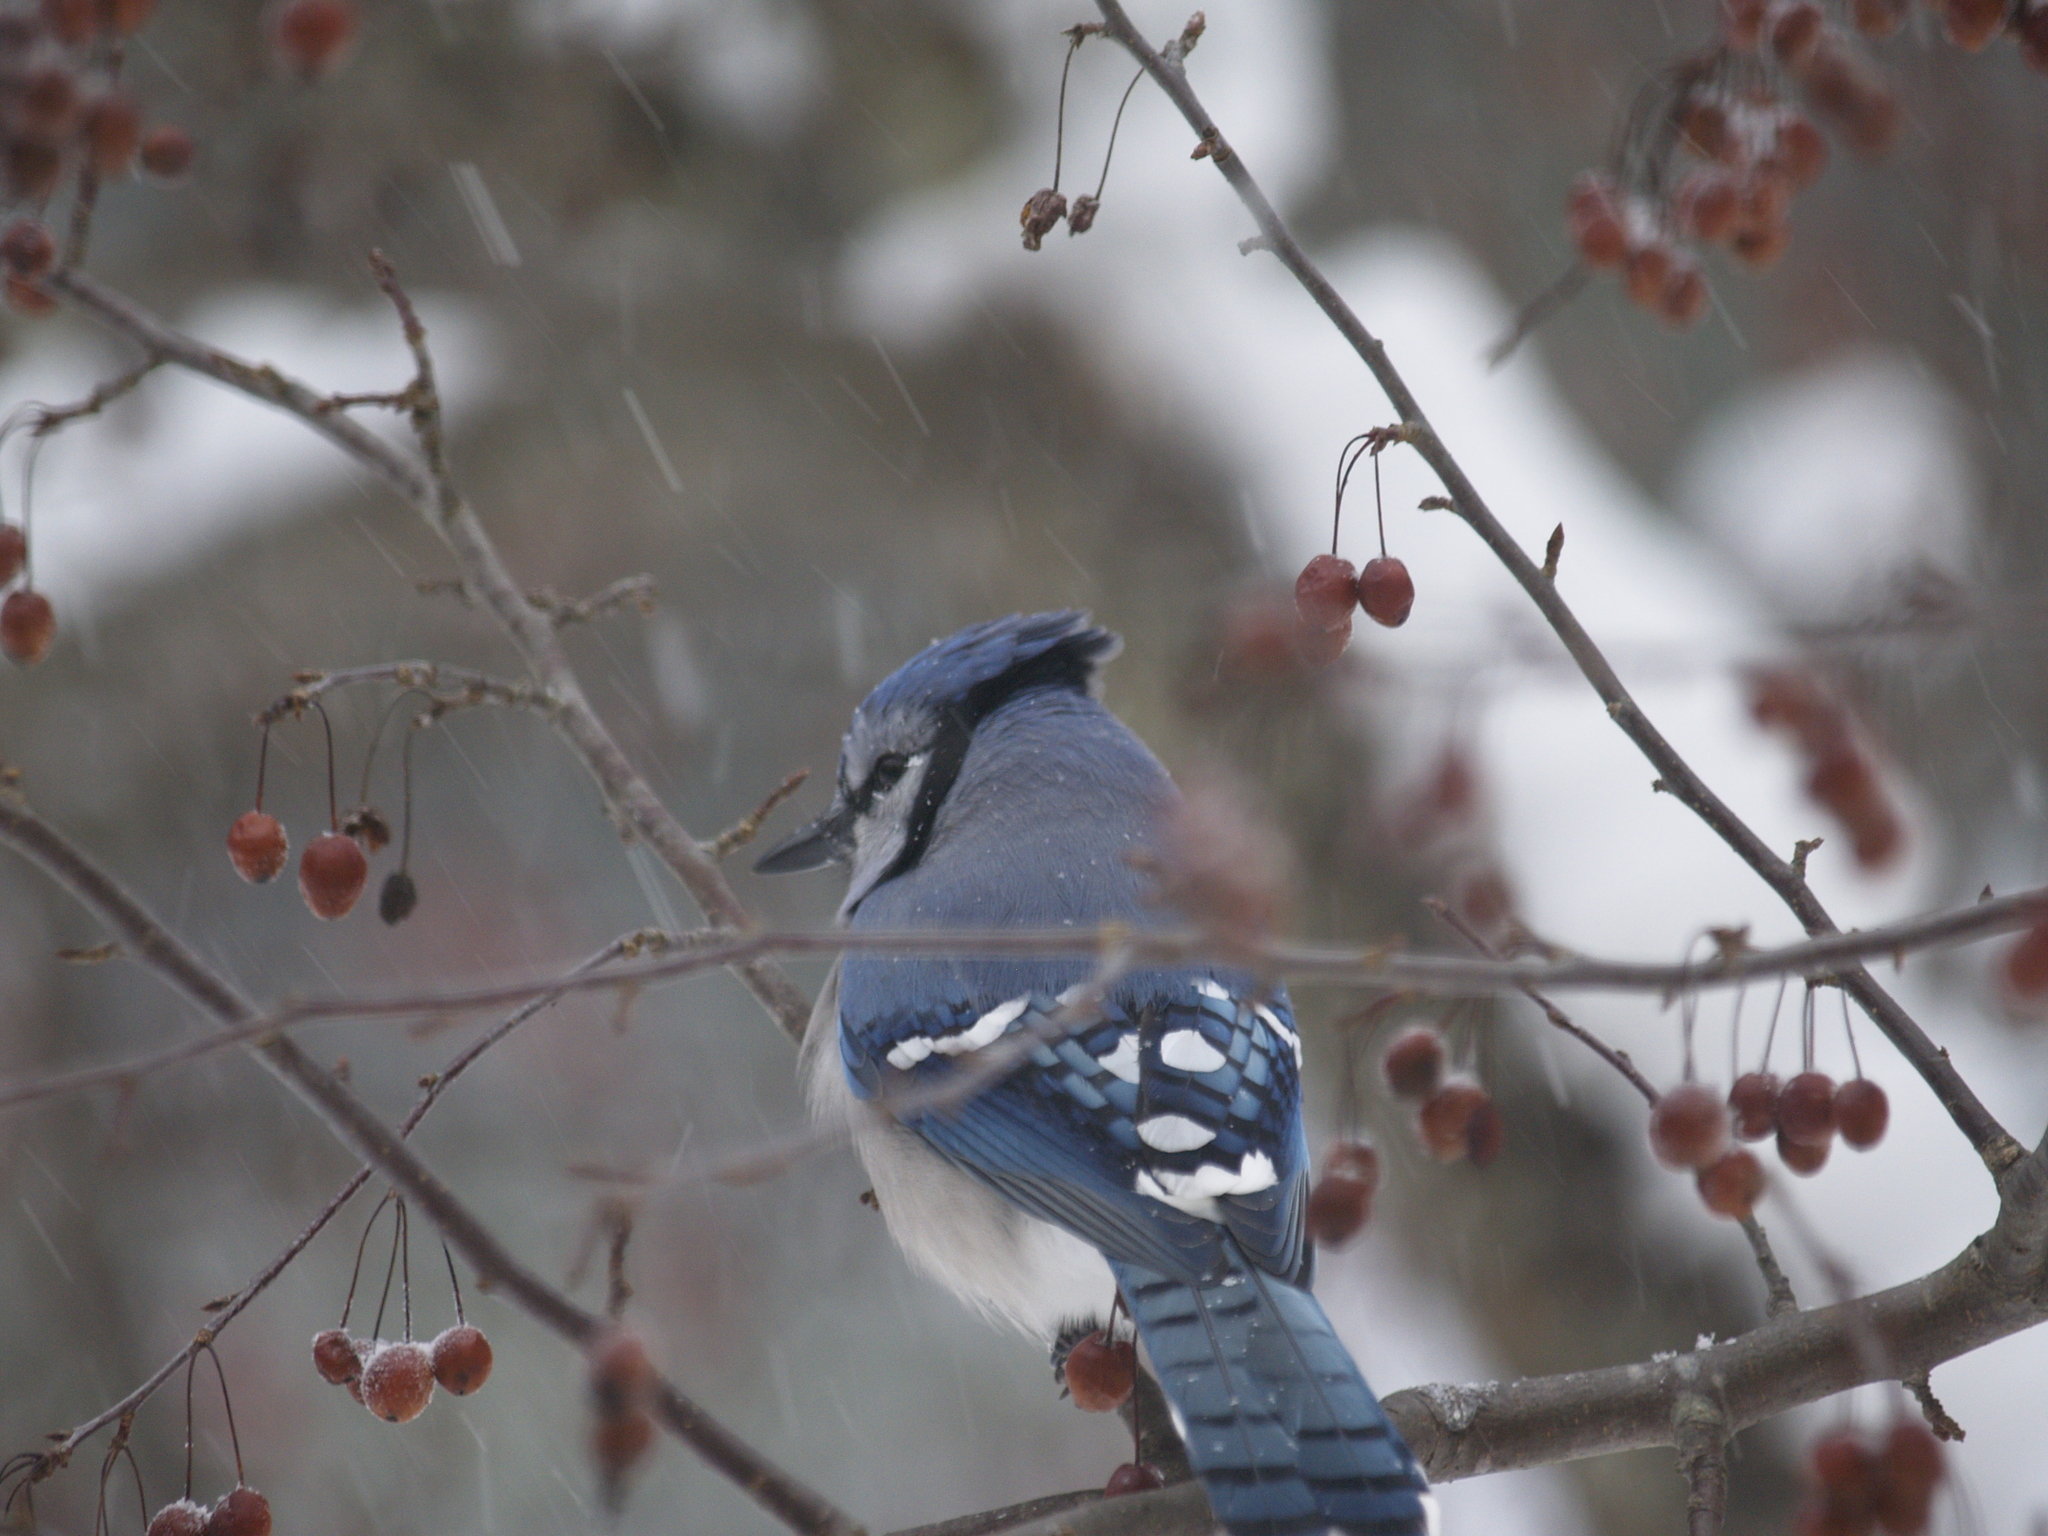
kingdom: Animalia
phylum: Chordata
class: Aves
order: Passeriformes
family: Corvidae
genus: Cyanocitta
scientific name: Cyanocitta cristata
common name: Blue jay
